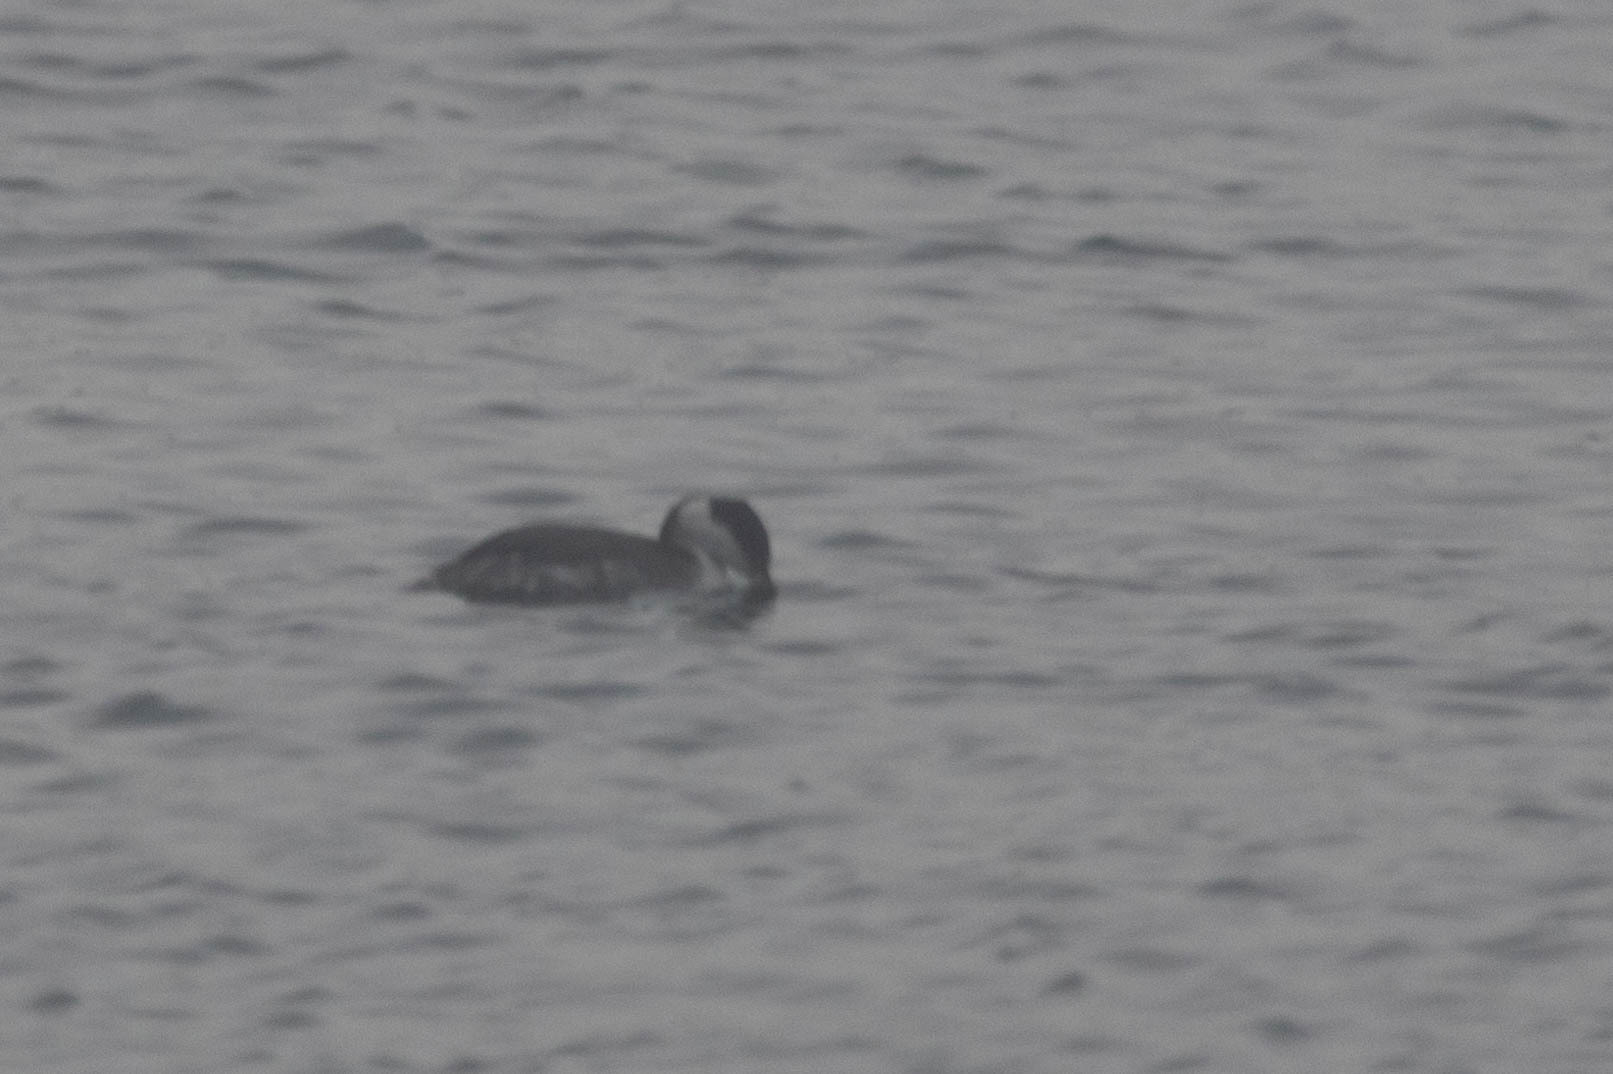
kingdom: Animalia
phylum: Chordata
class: Aves
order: Podicipediformes
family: Podicipedidae
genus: Podiceps
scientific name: Podiceps auritus
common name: Horned grebe
